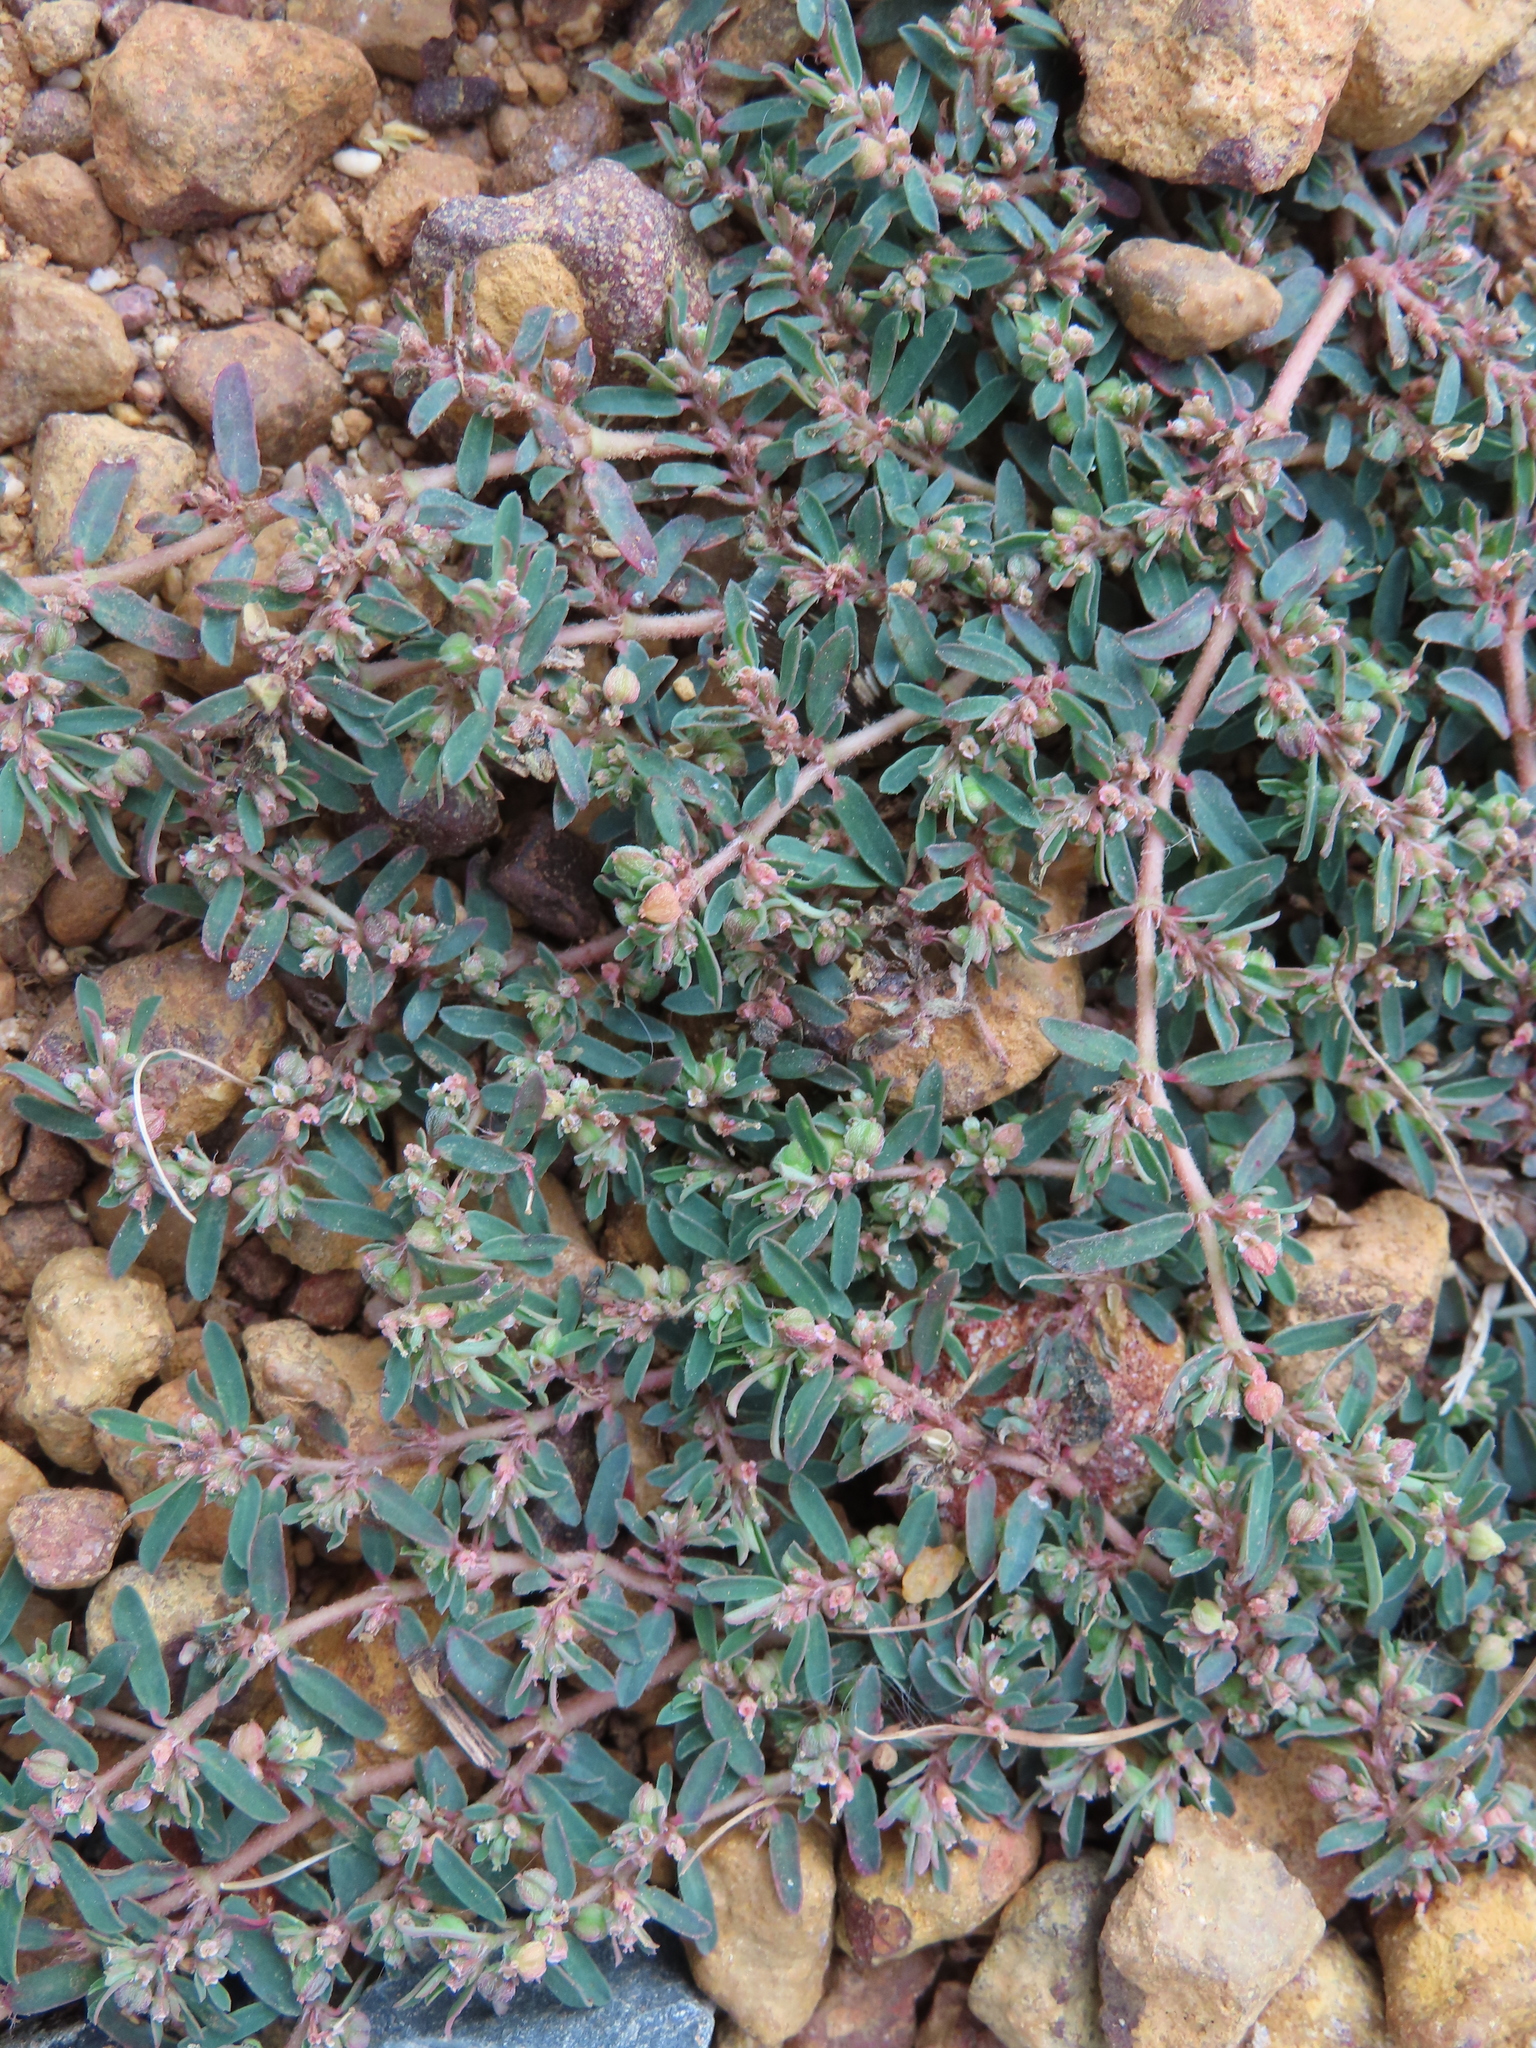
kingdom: Plantae
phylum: Tracheophyta
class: Magnoliopsida
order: Malpighiales
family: Euphorbiaceae
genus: Euphorbia
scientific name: Euphorbia maculata
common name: Spotted spurge
